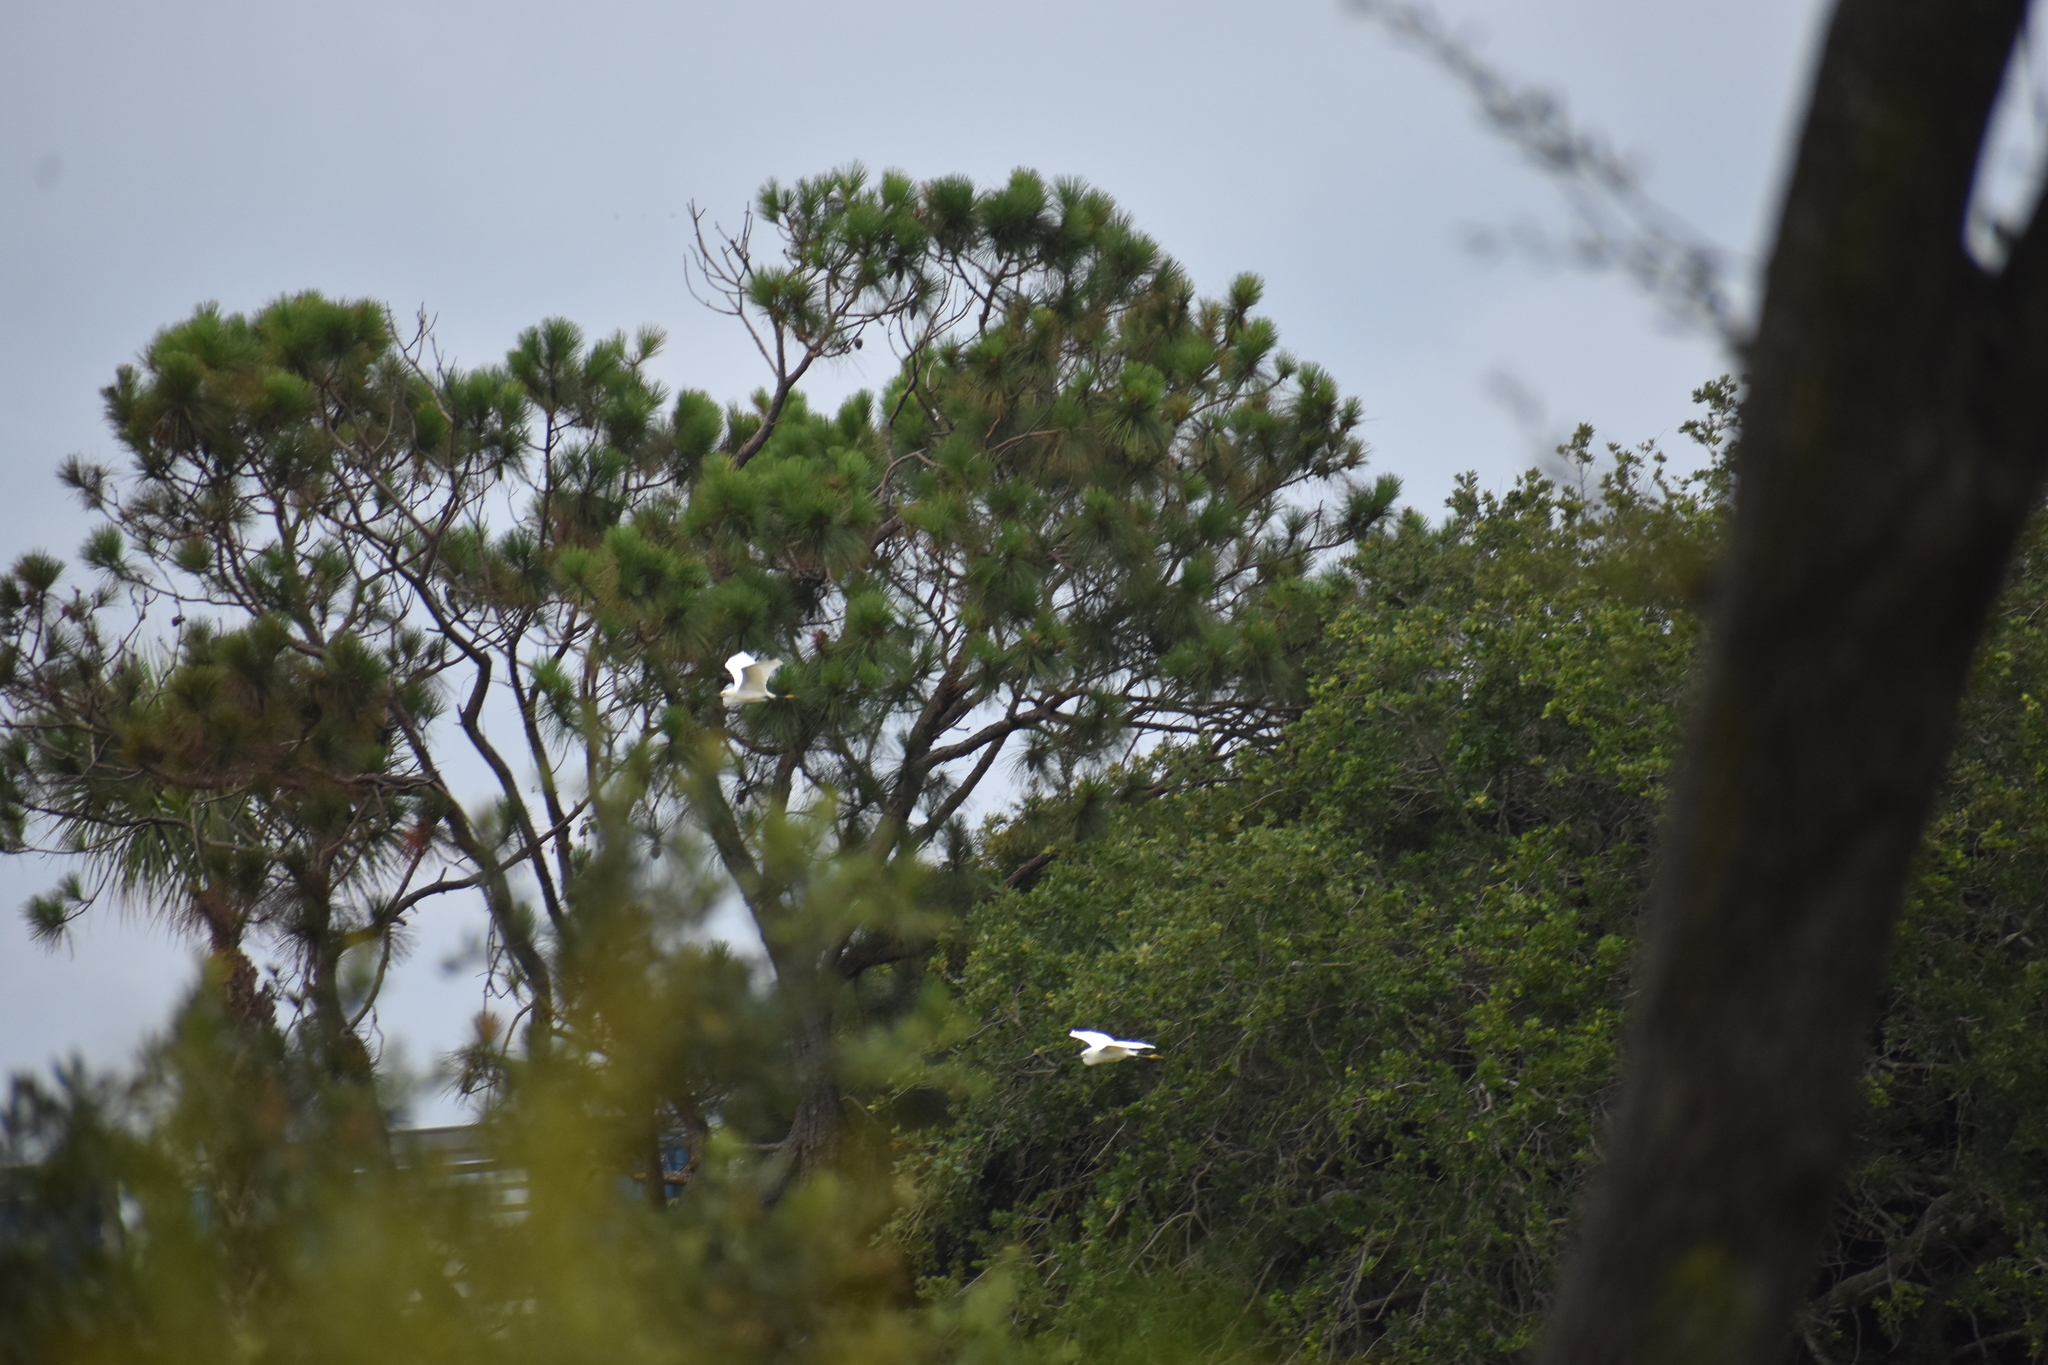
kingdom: Animalia
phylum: Chordata
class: Aves
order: Pelecaniformes
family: Ardeidae
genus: Egretta
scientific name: Egretta thula
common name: Snowy egret
